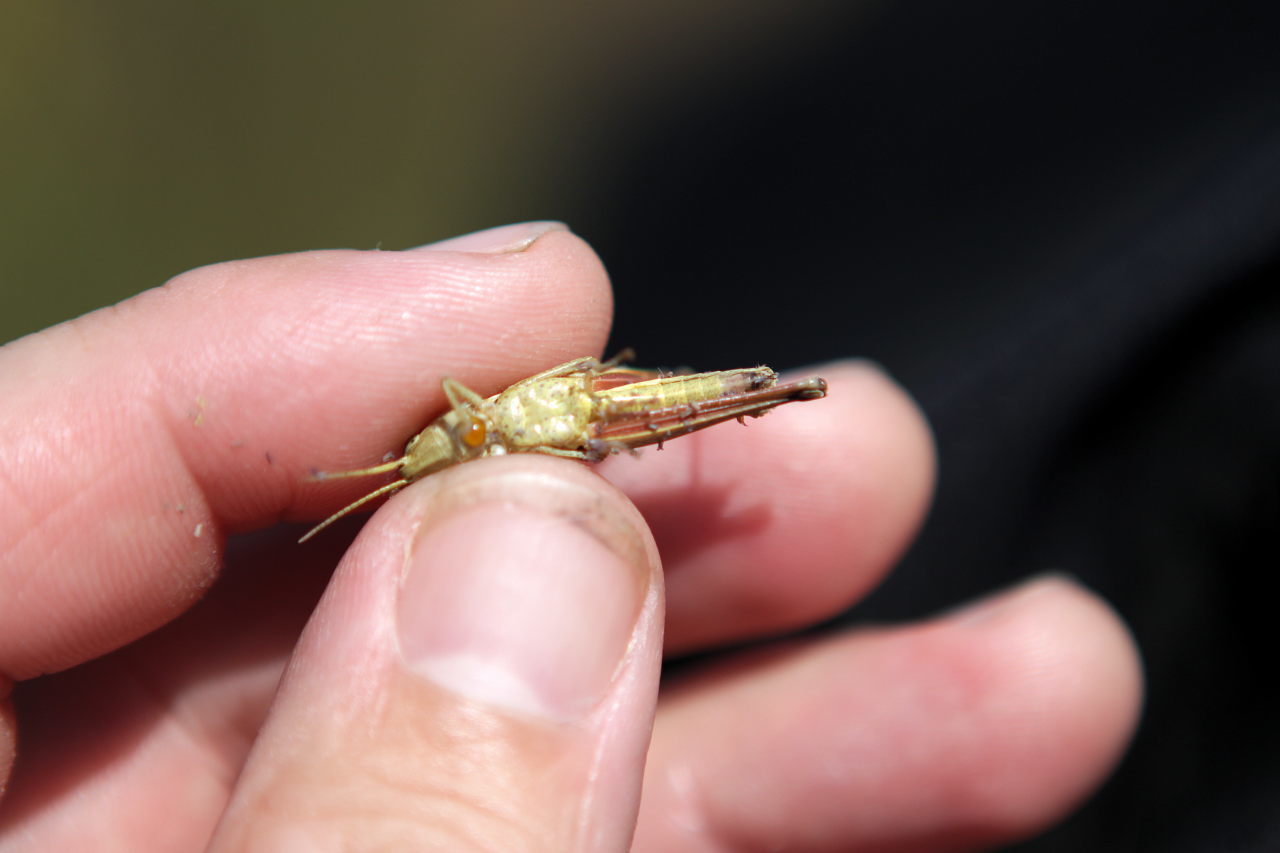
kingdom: Animalia
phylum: Arthropoda
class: Insecta
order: Orthoptera
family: Acrididae
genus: Chrysochraon
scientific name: Chrysochraon dispar
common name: Large gold grasshopper
